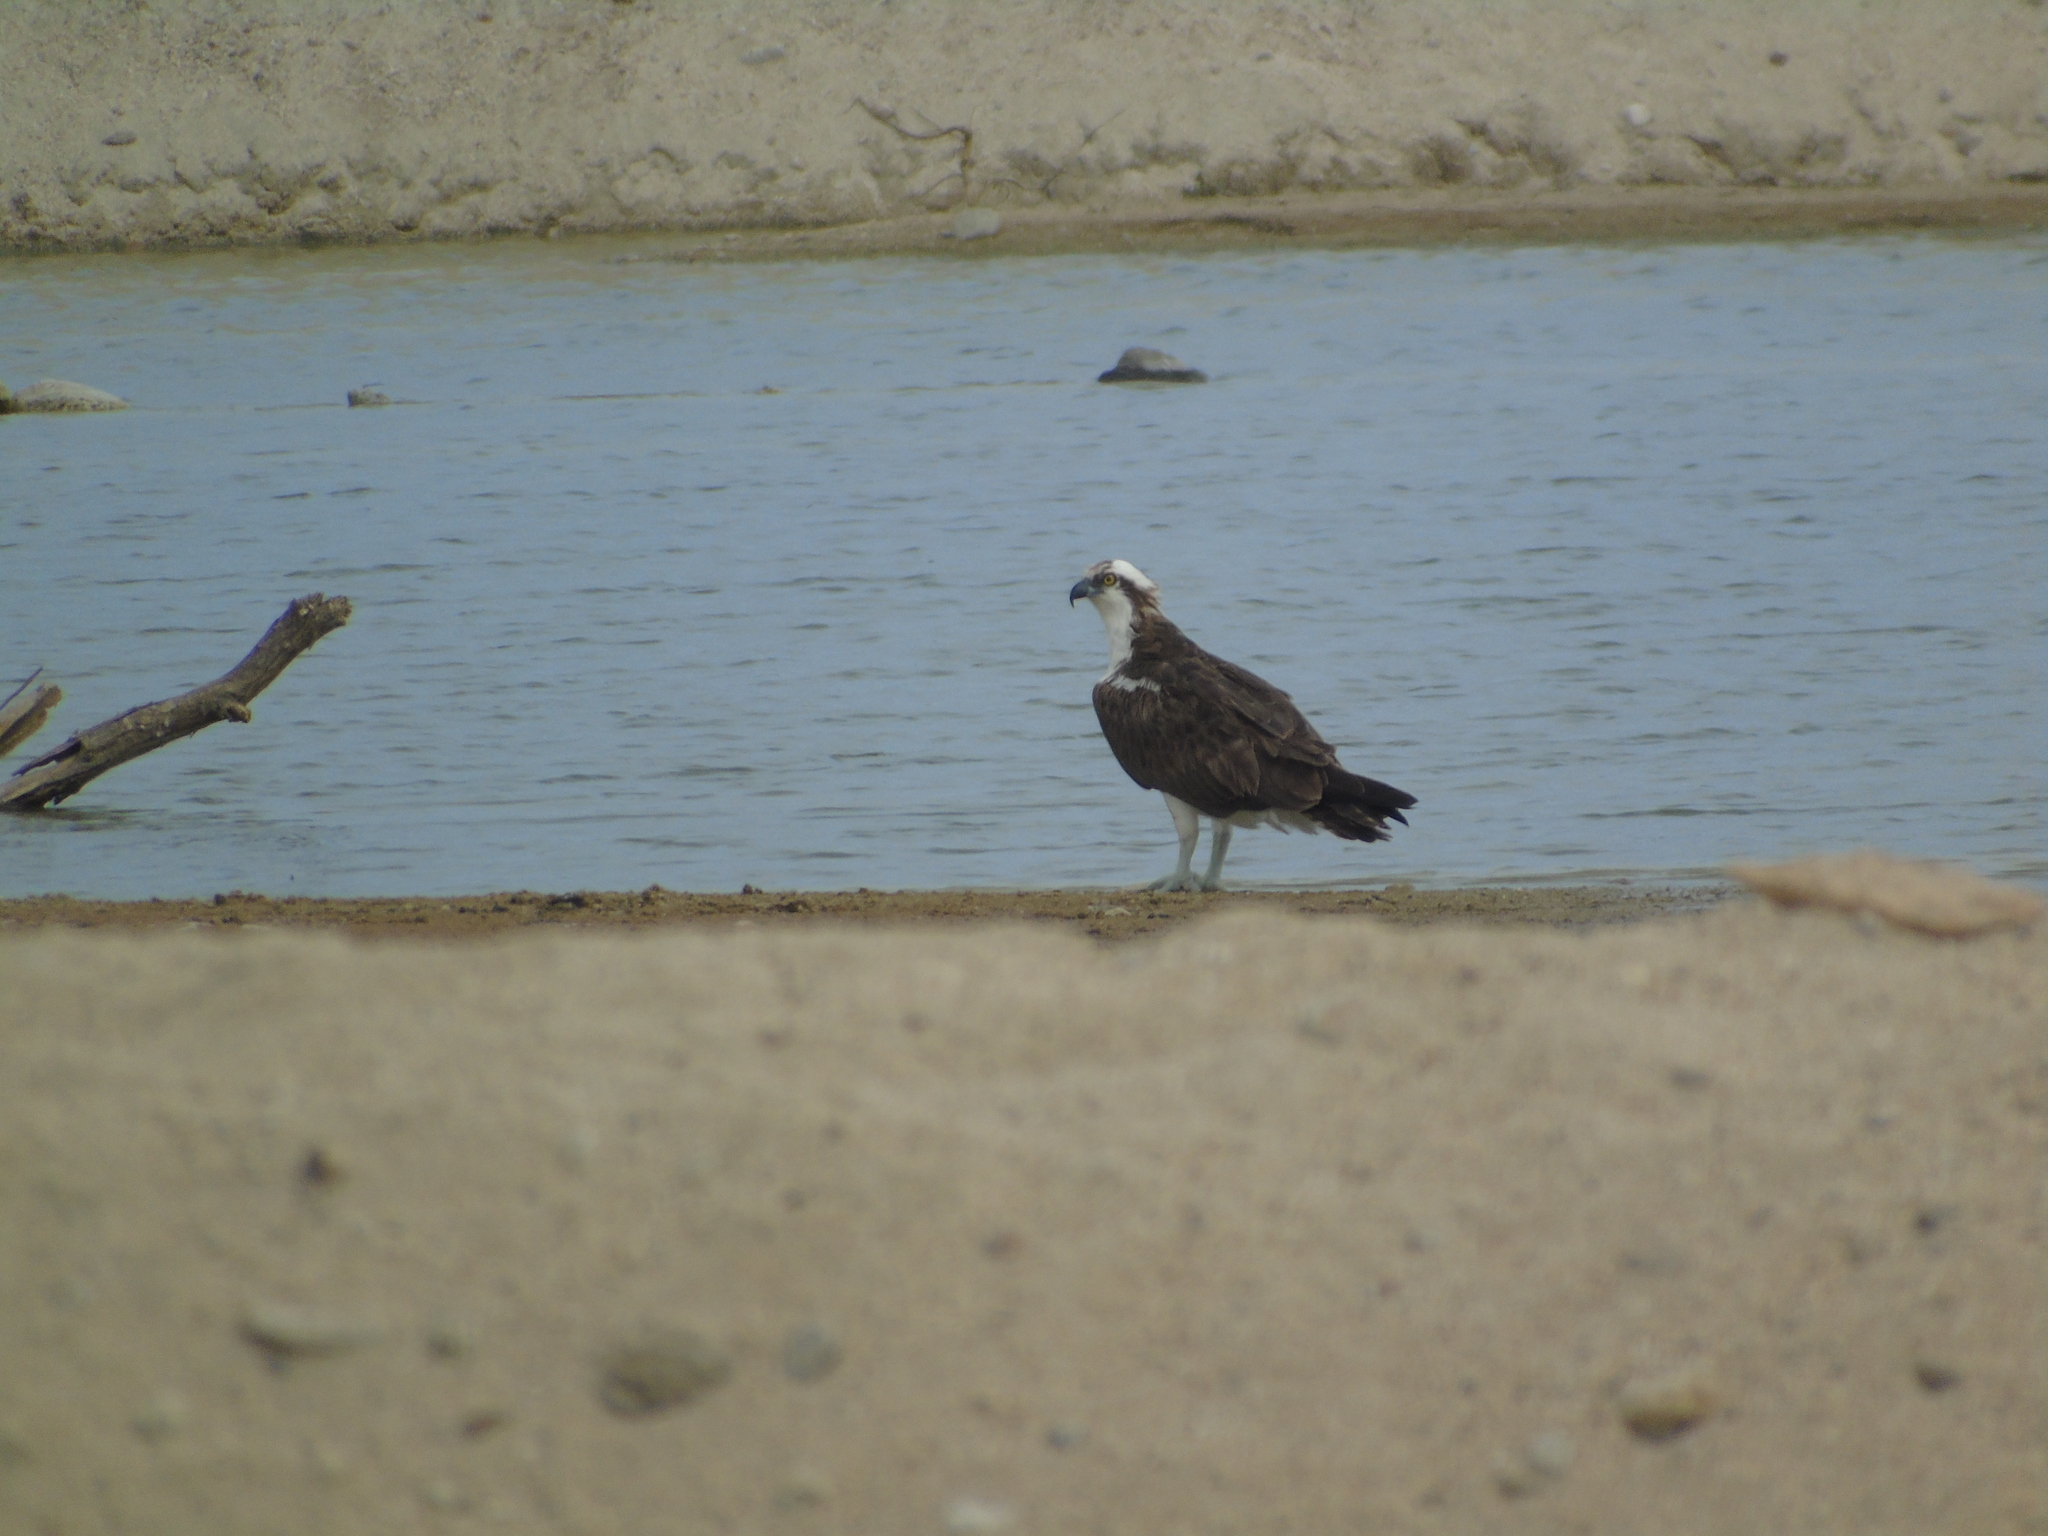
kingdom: Animalia
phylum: Chordata
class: Aves
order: Accipitriformes
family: Pandionidae
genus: Pandion
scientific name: Pandion haliaetus
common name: Osprey
